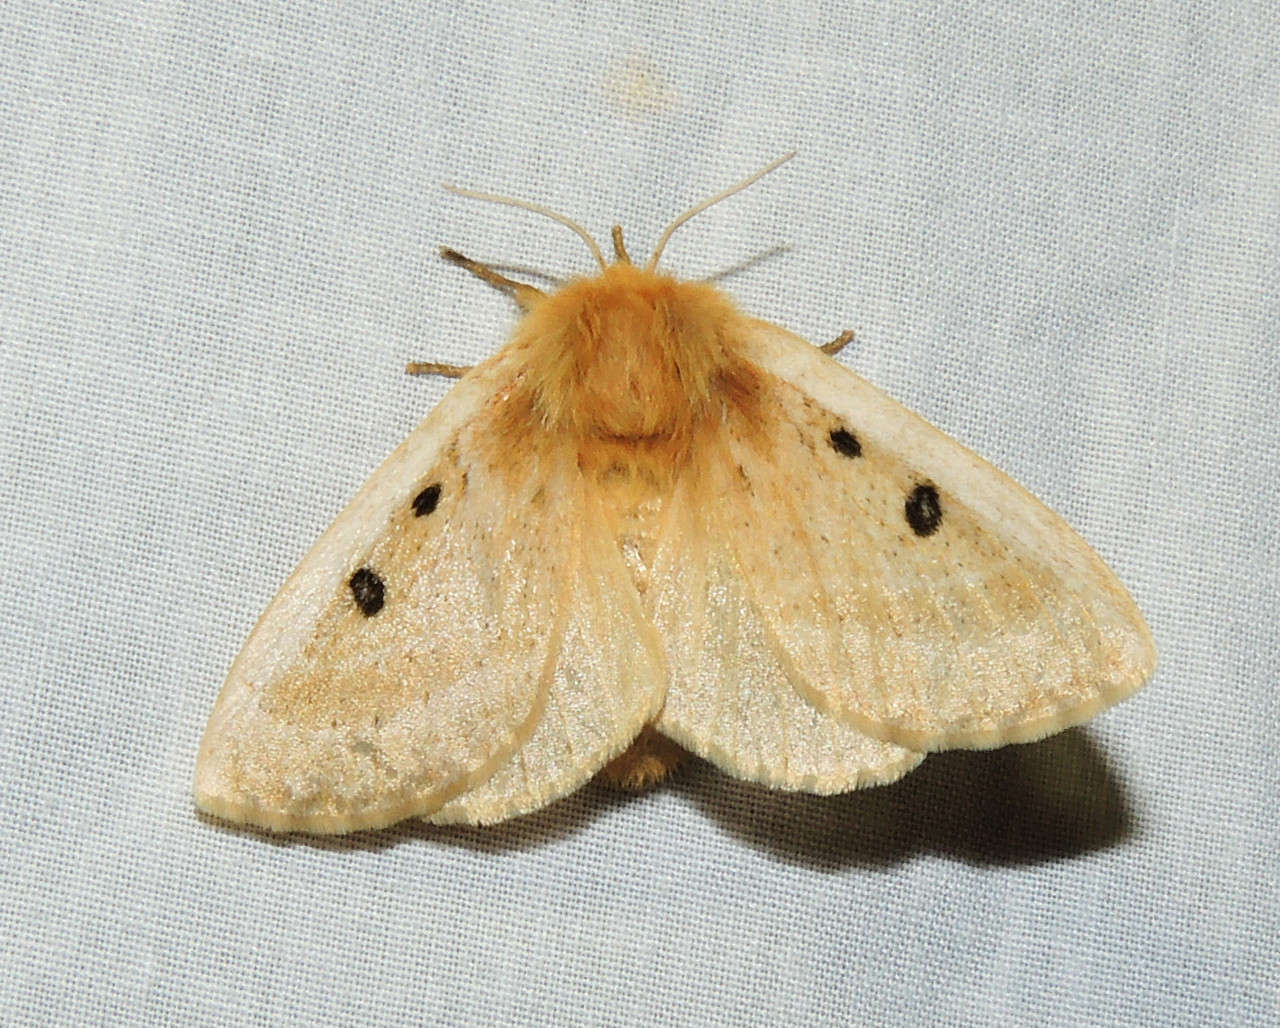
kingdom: Animalia
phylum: Arthropoda
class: Insecta
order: Lepidoptera
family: Anthelidae
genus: Anthela
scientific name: Anthela ocellata
